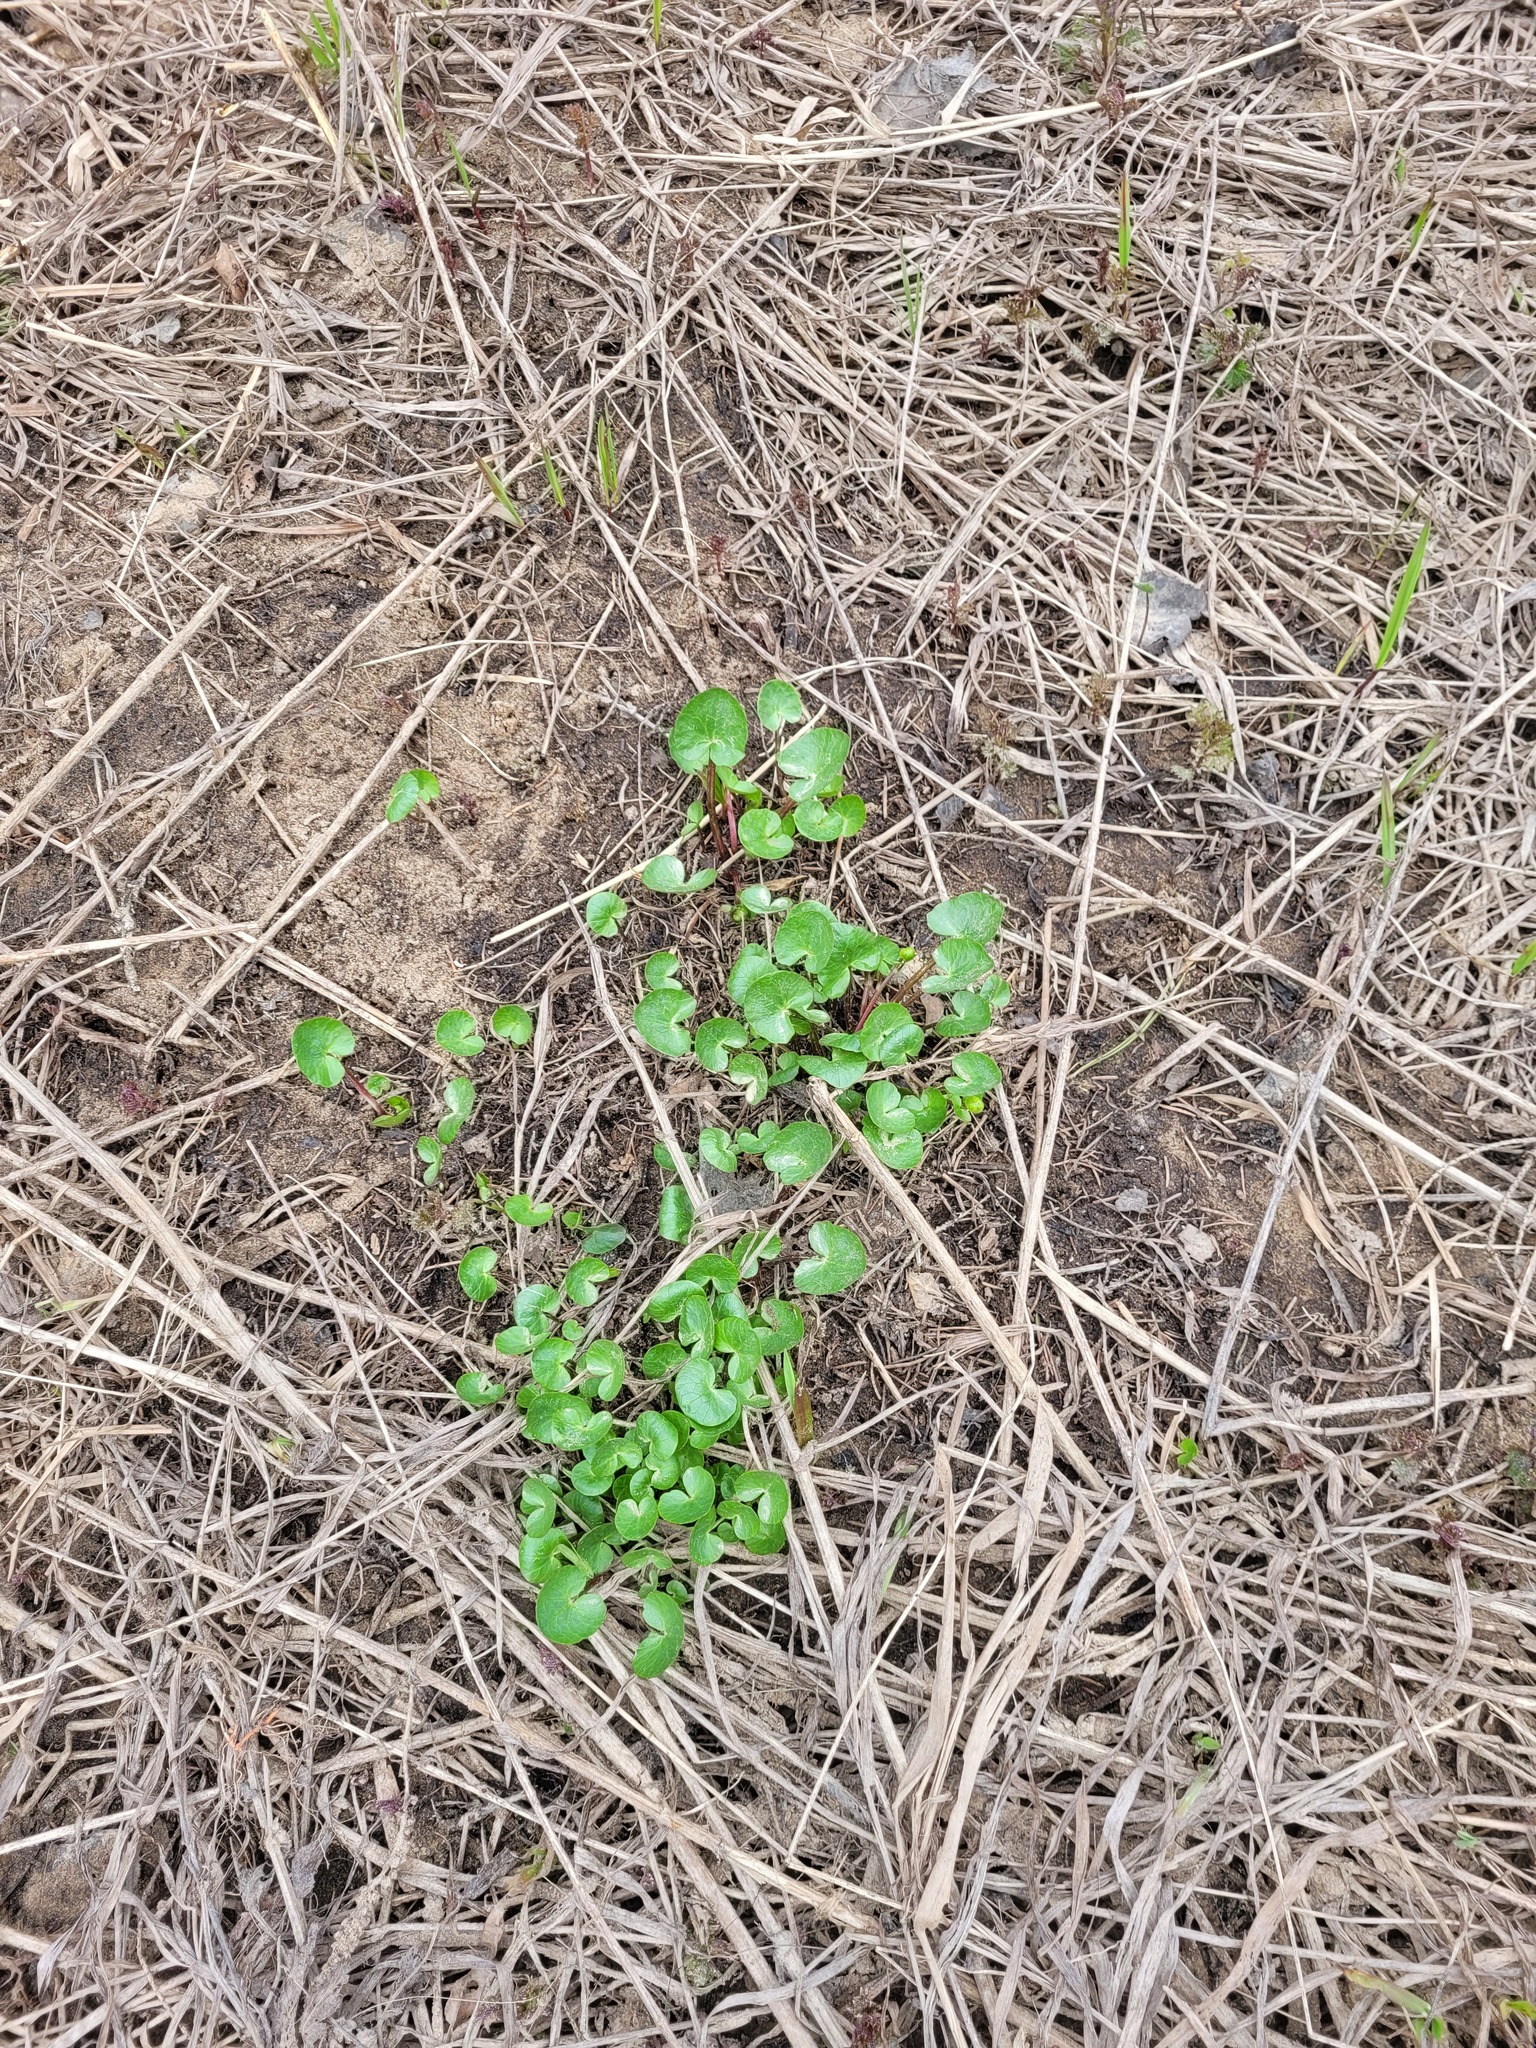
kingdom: Plantae
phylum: Tracheophyta
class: Magnoliopsida
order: Ranunculales
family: Ranunculaceae
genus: Ficaria
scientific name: Ficaria verna
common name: Lesser celandine
